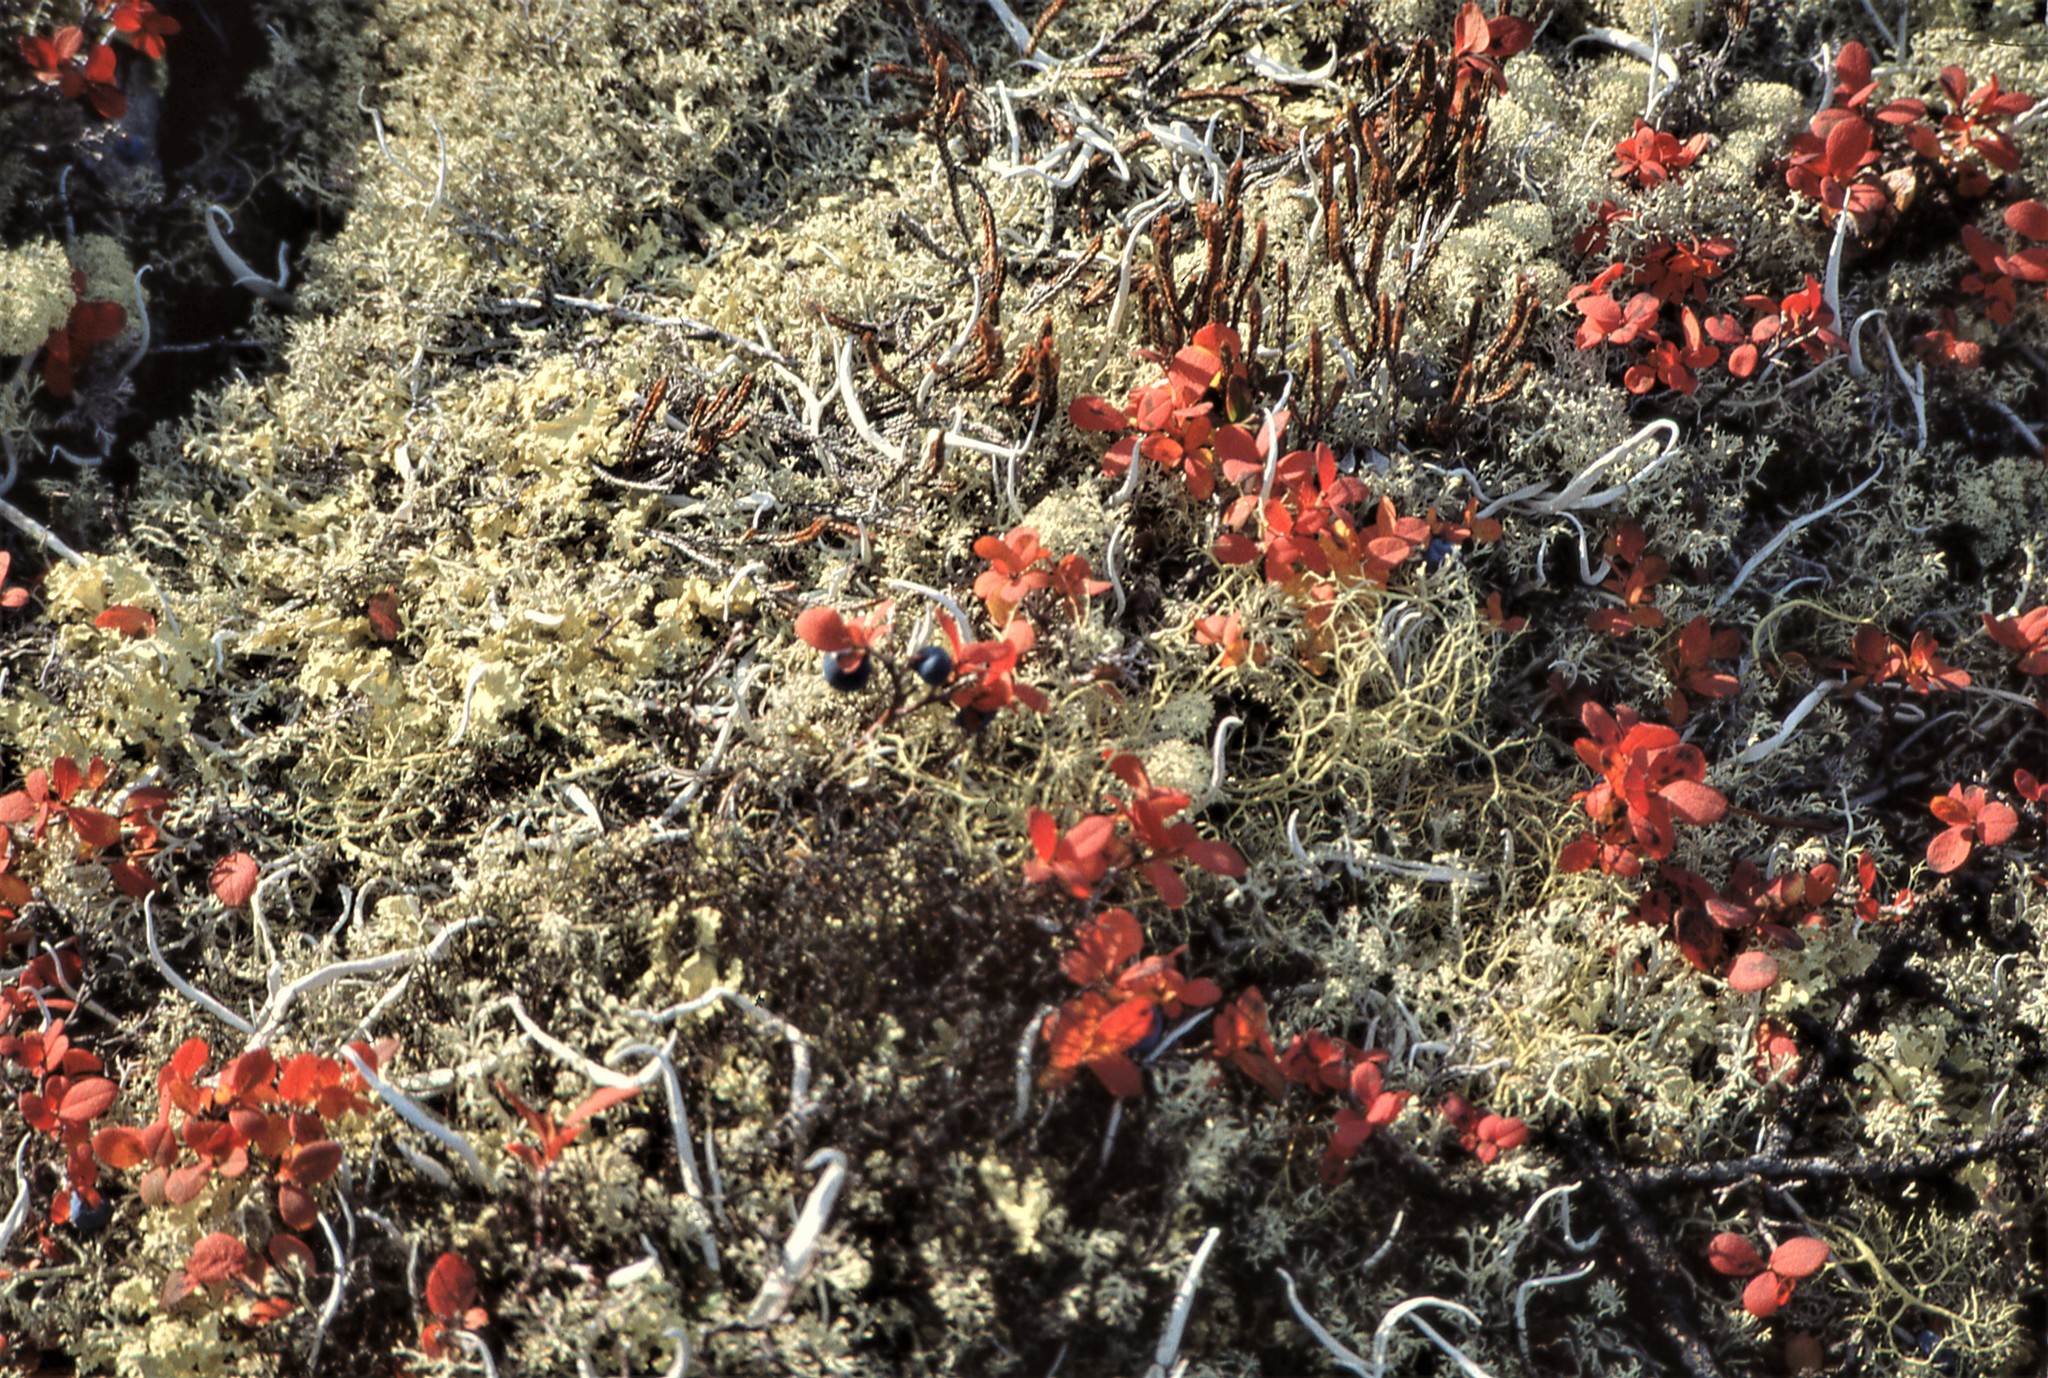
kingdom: Plantae
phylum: Tracheophyta
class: Magnoliopsida
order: Ericales
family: Ericaceae
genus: Vaccinium
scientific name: Vaccinium uliginosum
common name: Bog bilberry
